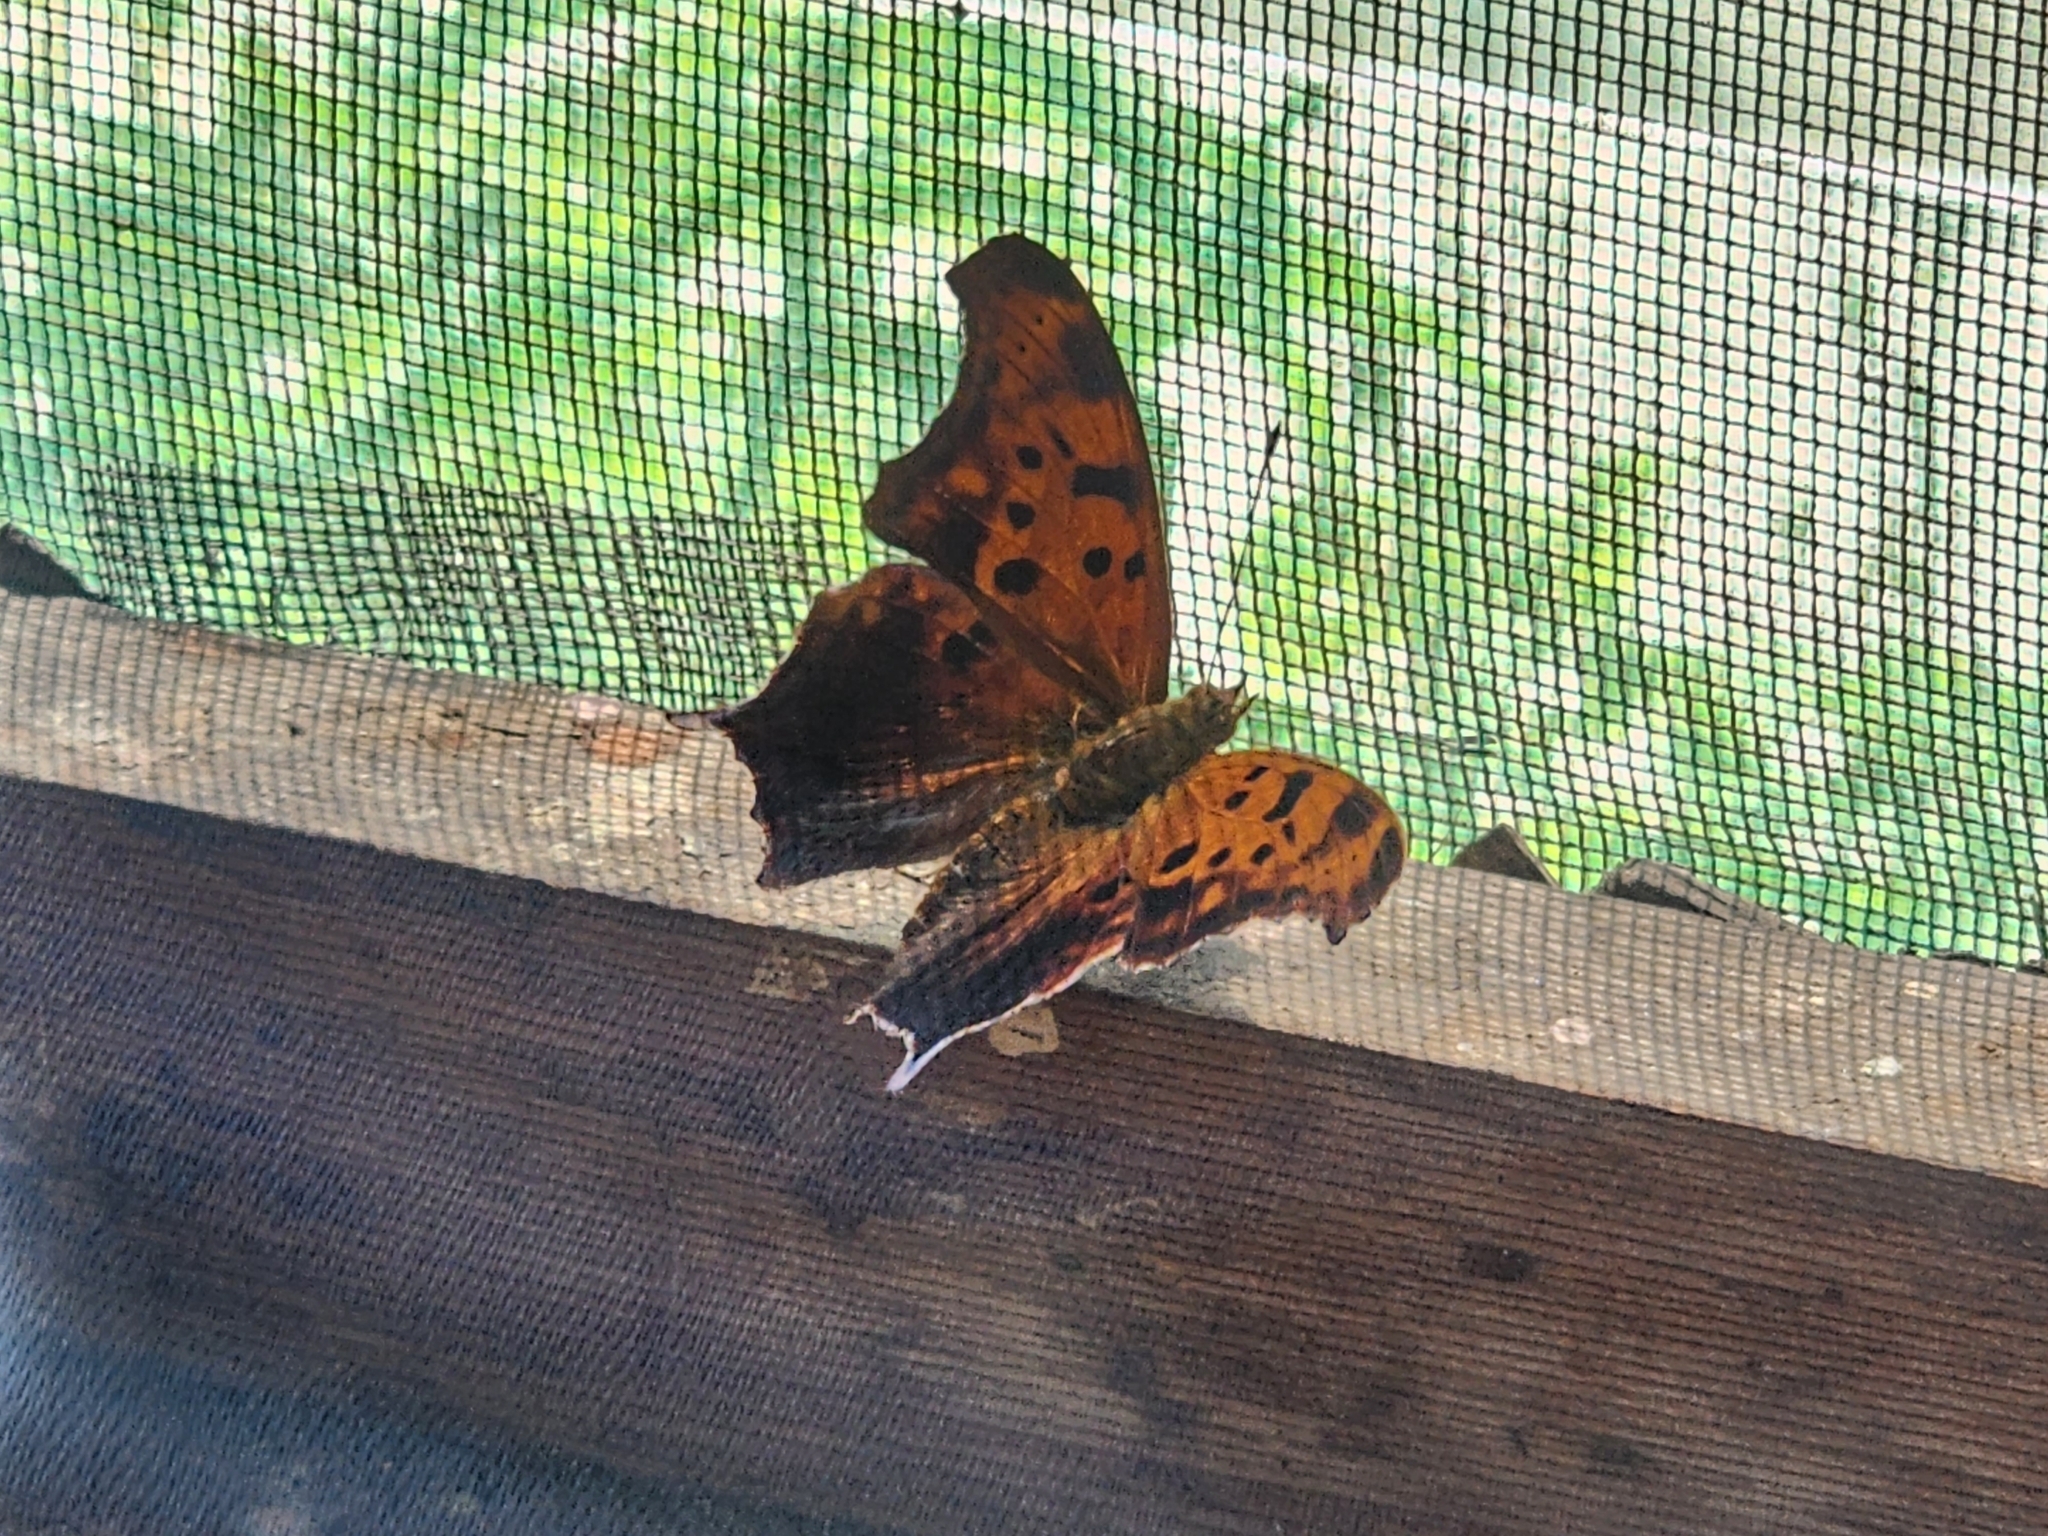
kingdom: Animalia
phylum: Arthropoda
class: Insecta
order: Lepidoptera
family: Nymphalidae
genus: Polygonia
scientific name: Polygonia interrogationis
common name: Question mark
